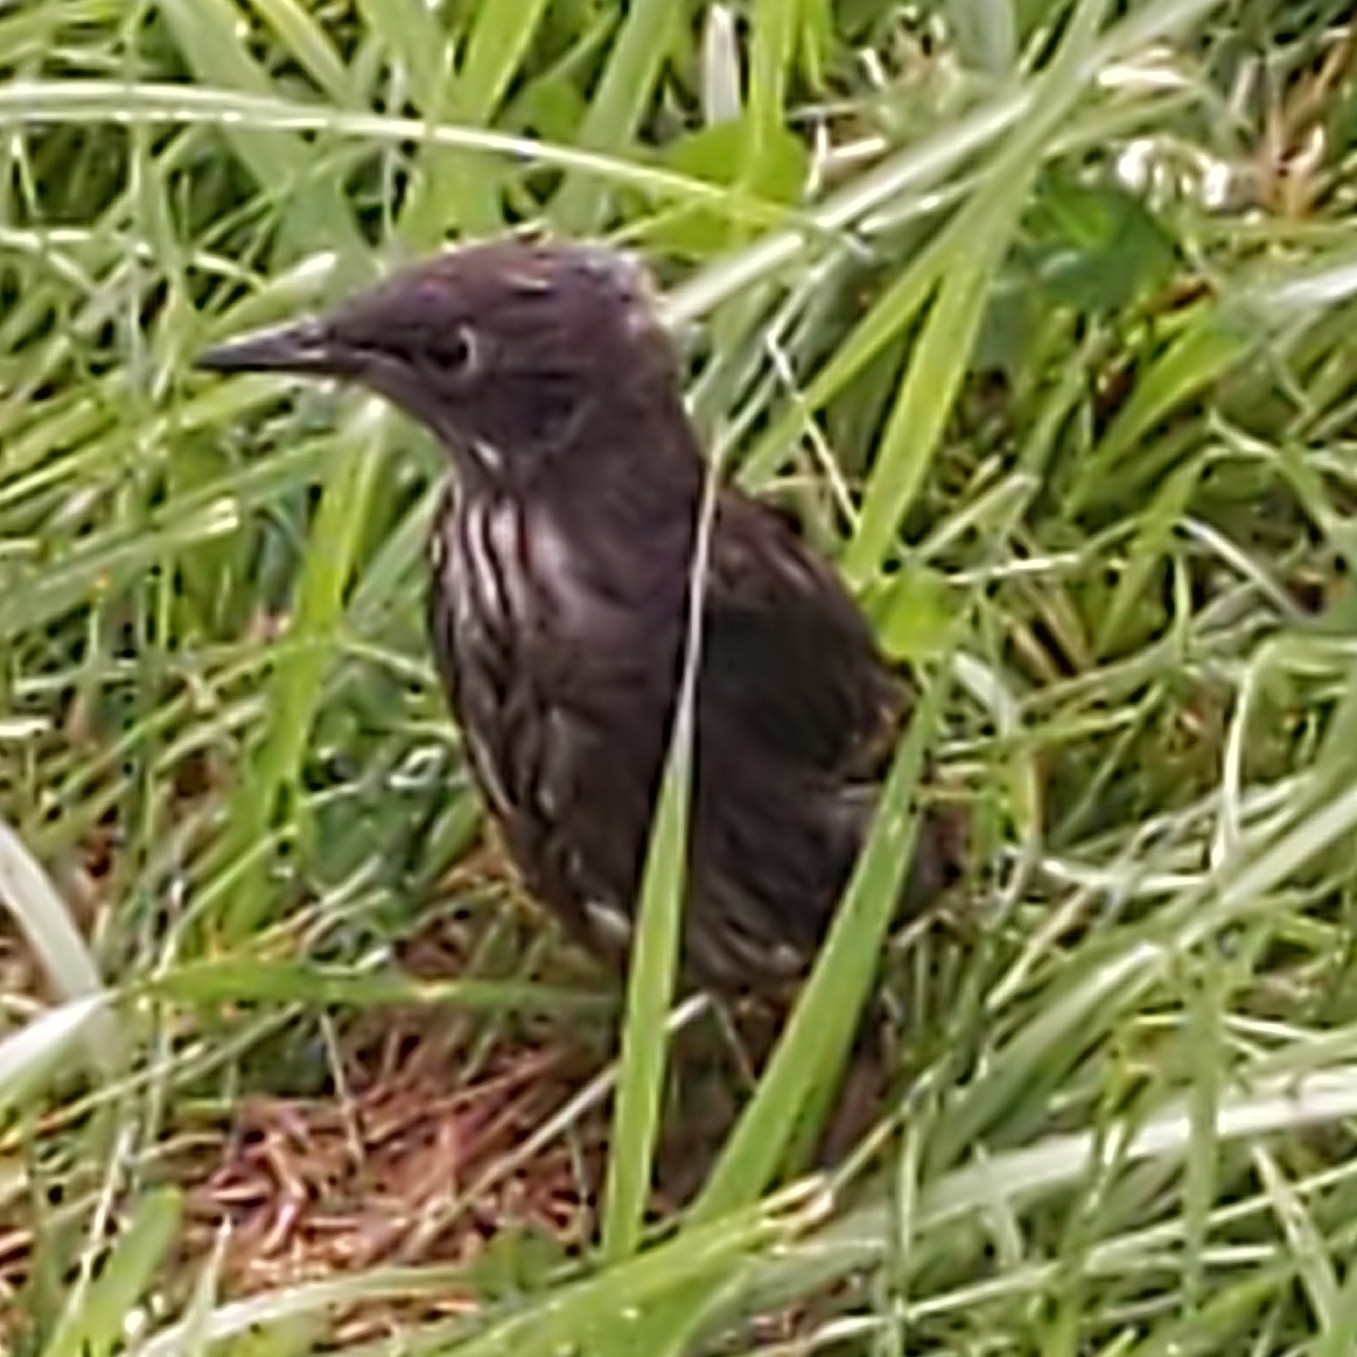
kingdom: Animalia
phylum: Chordata
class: Aves
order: Passeriformes
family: Sturnidae
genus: Sturnus
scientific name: Sturnus vulgaris
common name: Common starling
